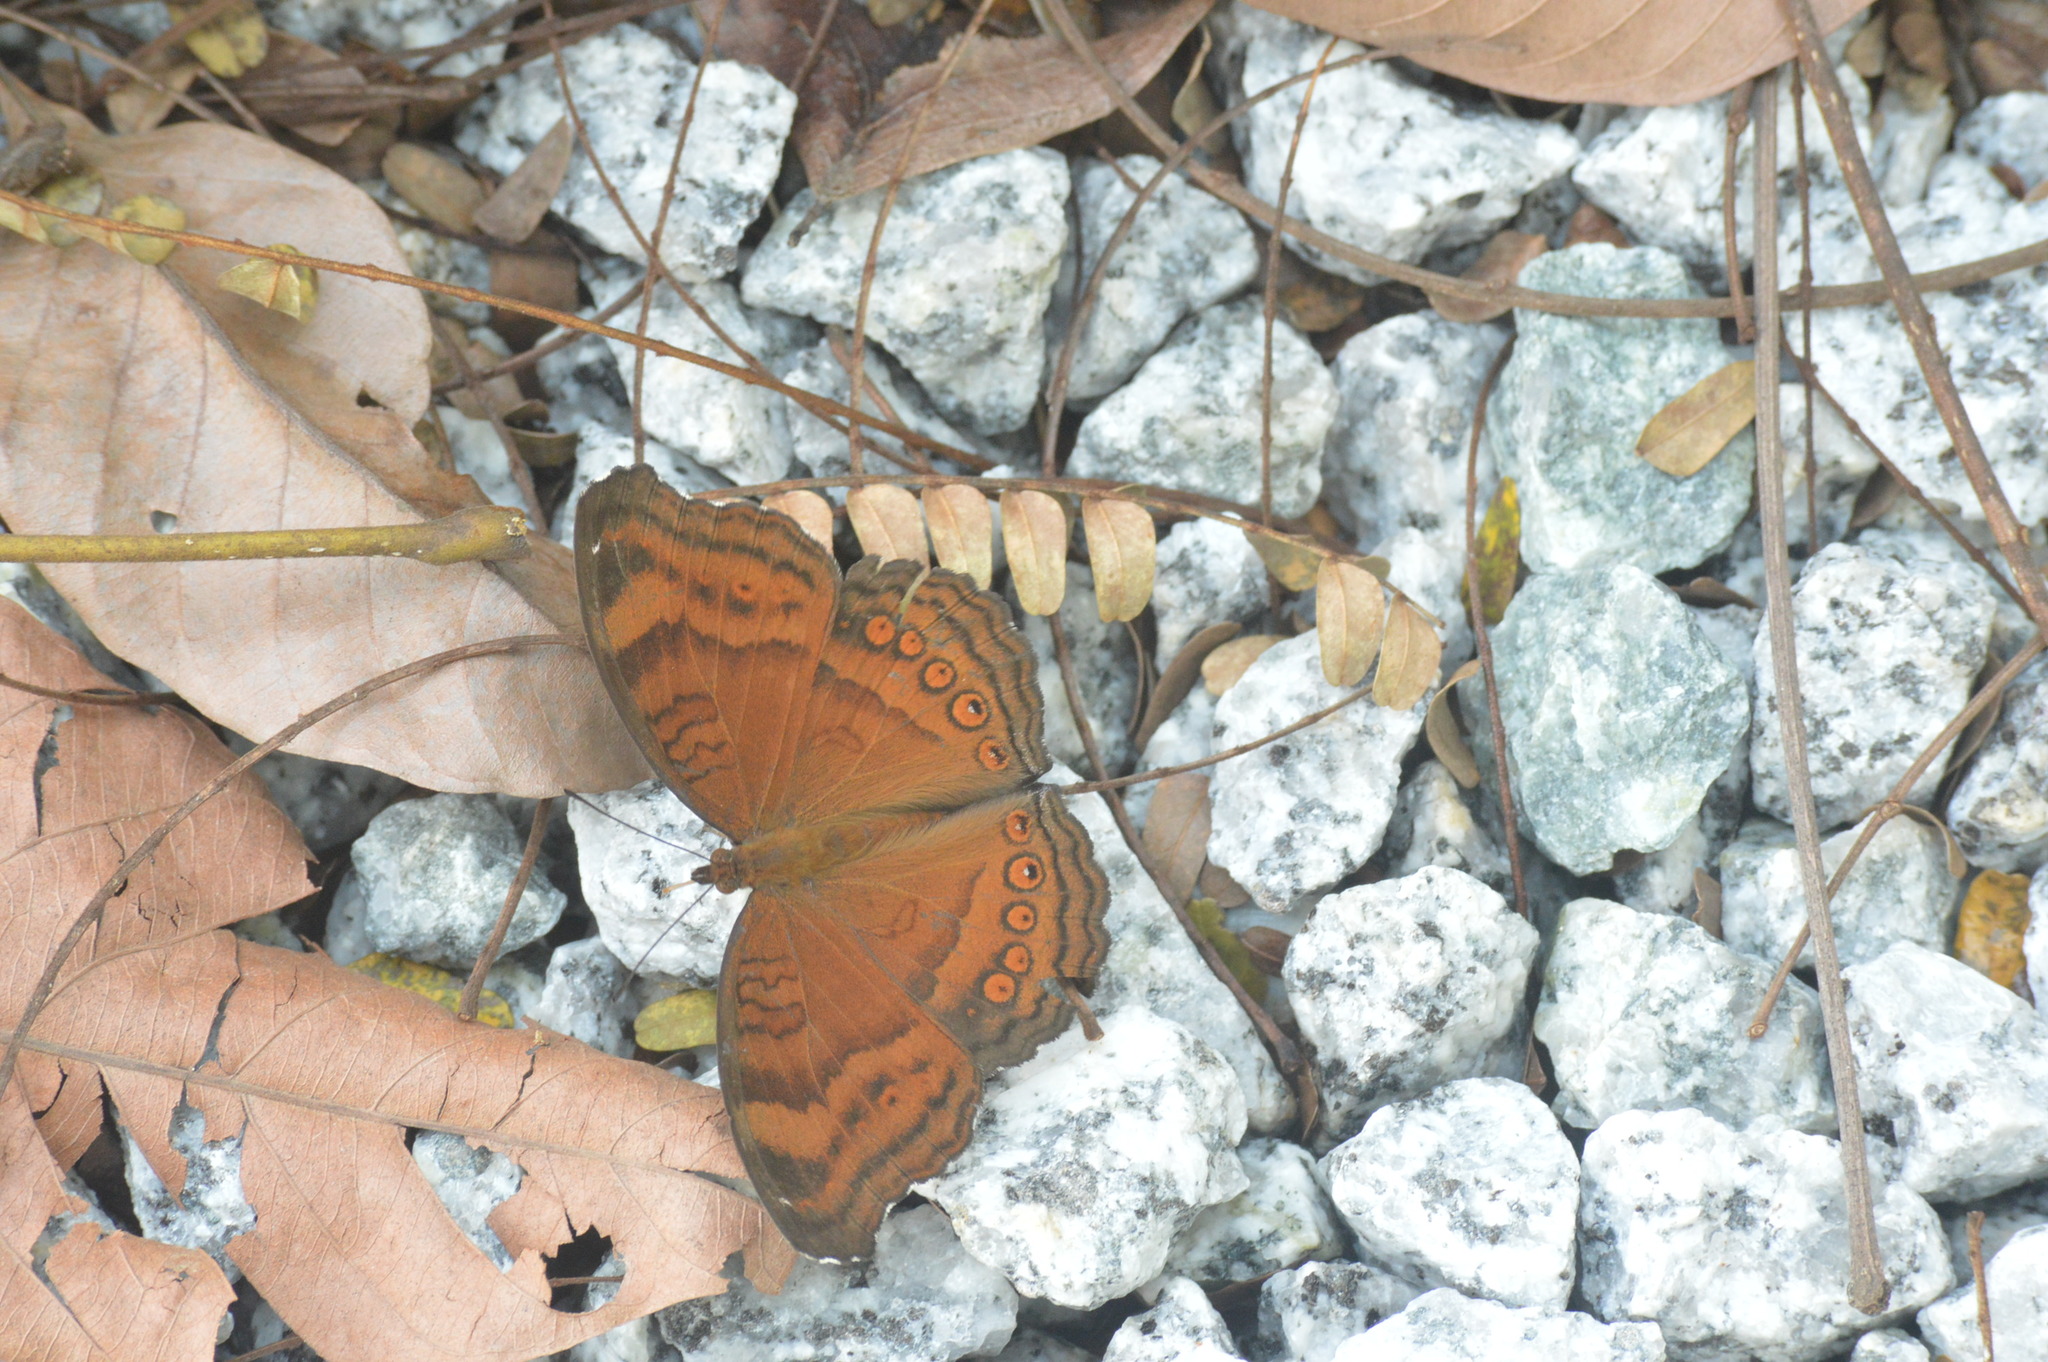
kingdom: Animalia
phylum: Arthropoda
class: Insecta
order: Lepidoptera
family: Nymphalidae
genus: Junonia
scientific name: Junonia hedonia
